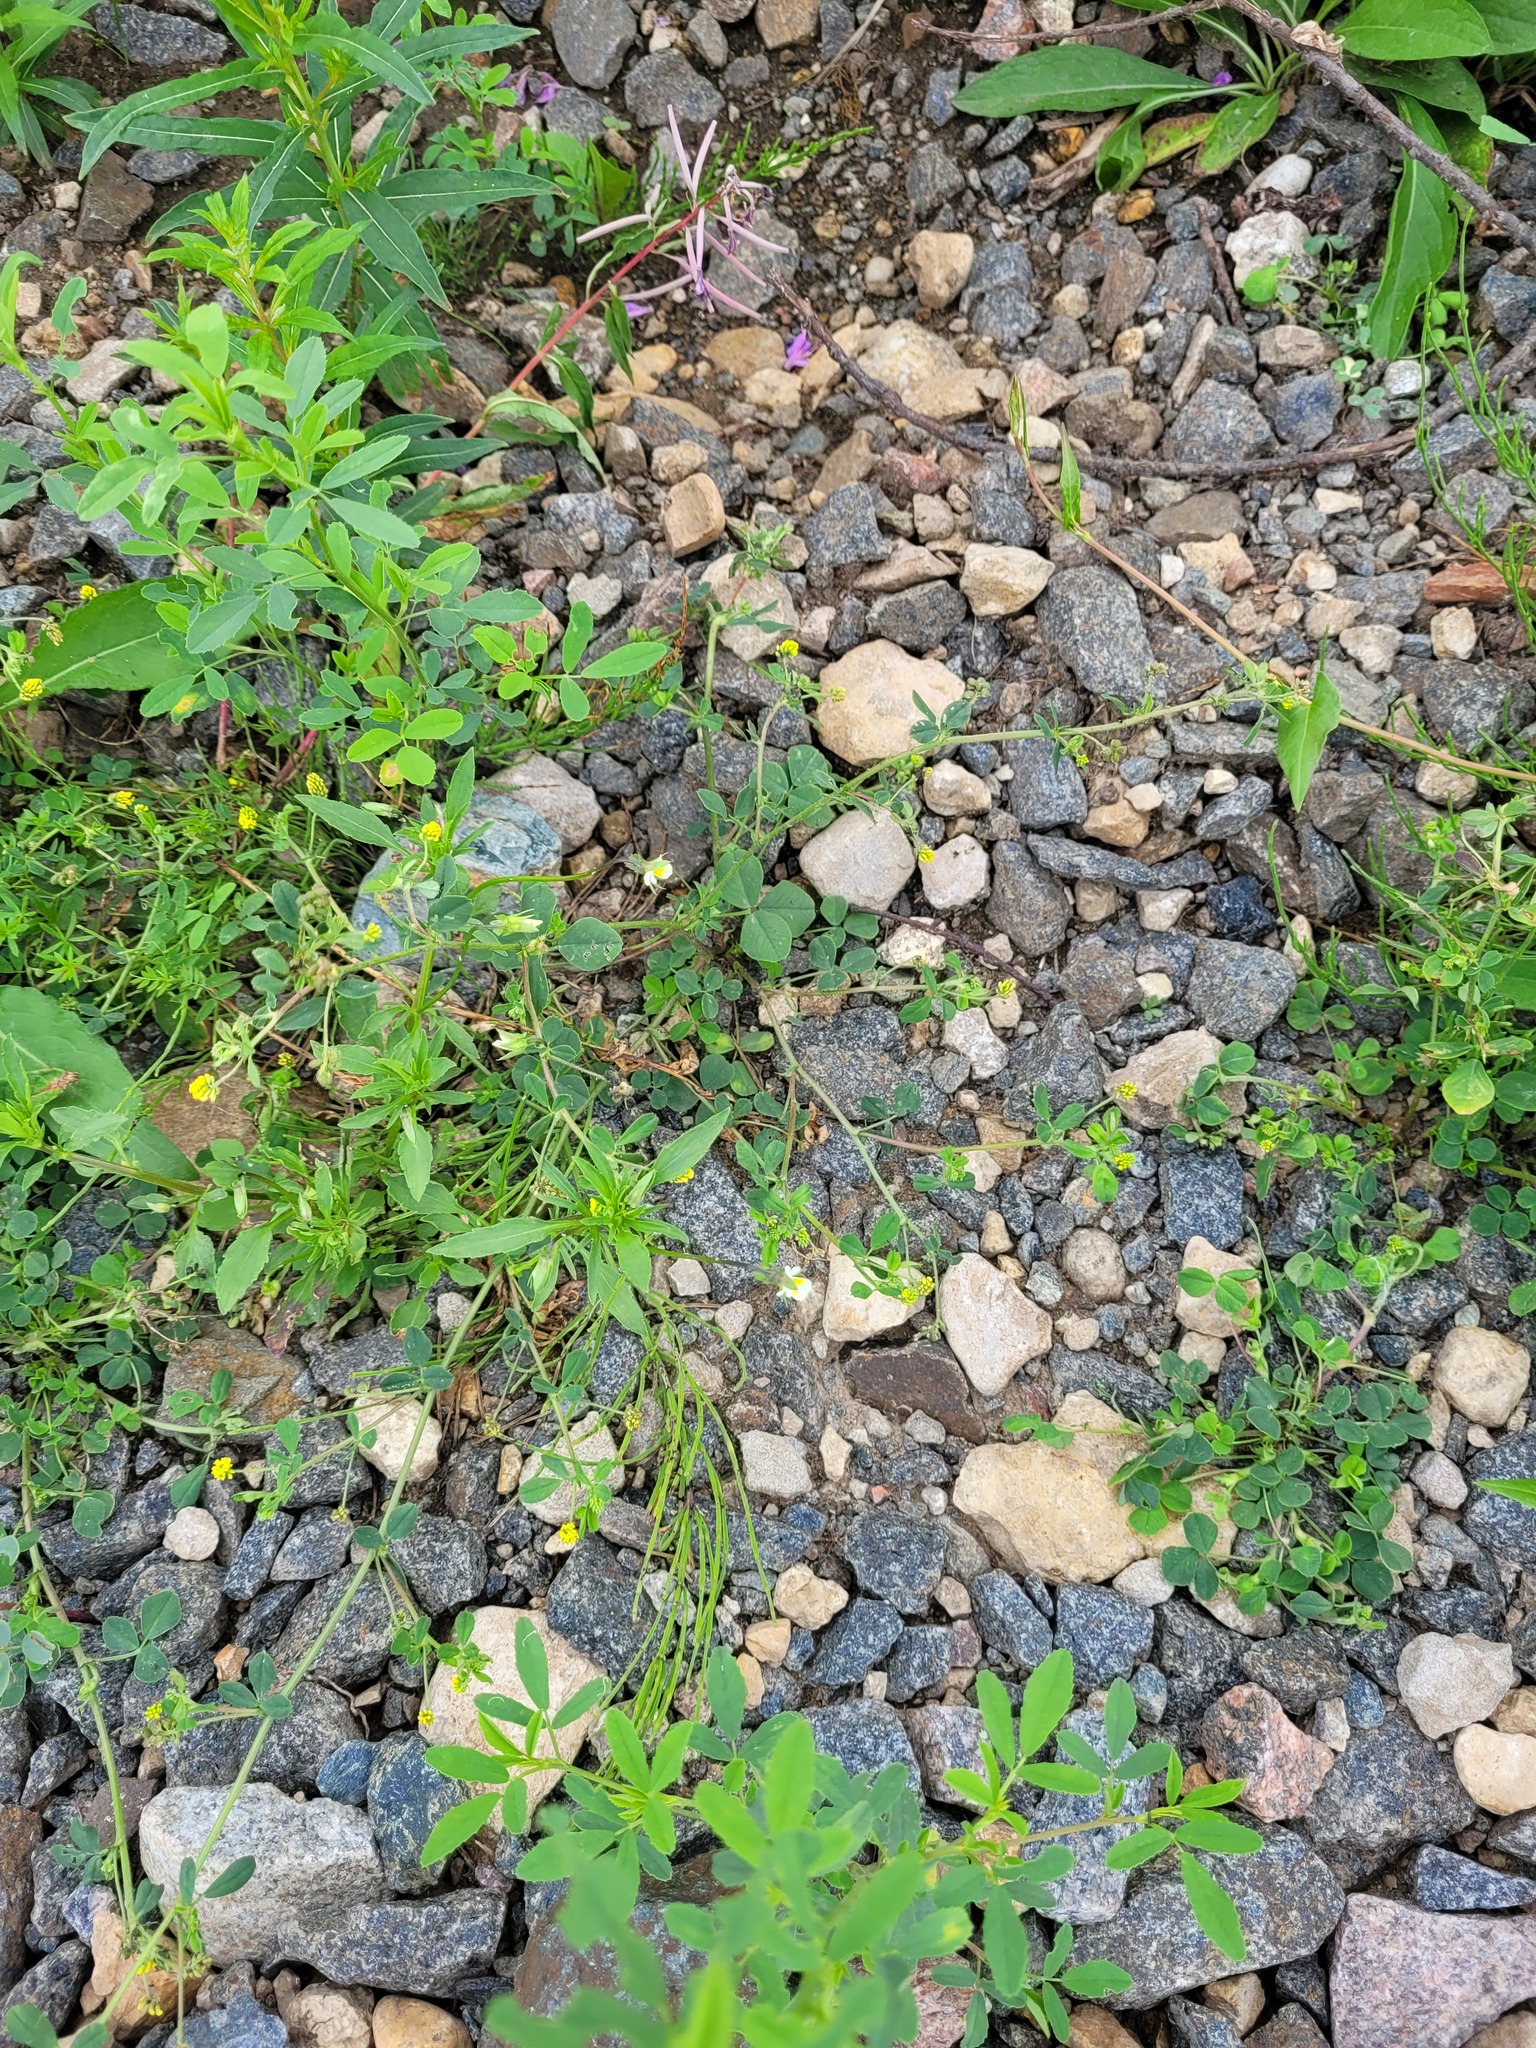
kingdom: Plantae
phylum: Tracheophyta
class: Magnoliopsida
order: Fabales
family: Fabaceae
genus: Medicago
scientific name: Medicago lupulina
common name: Black medick
